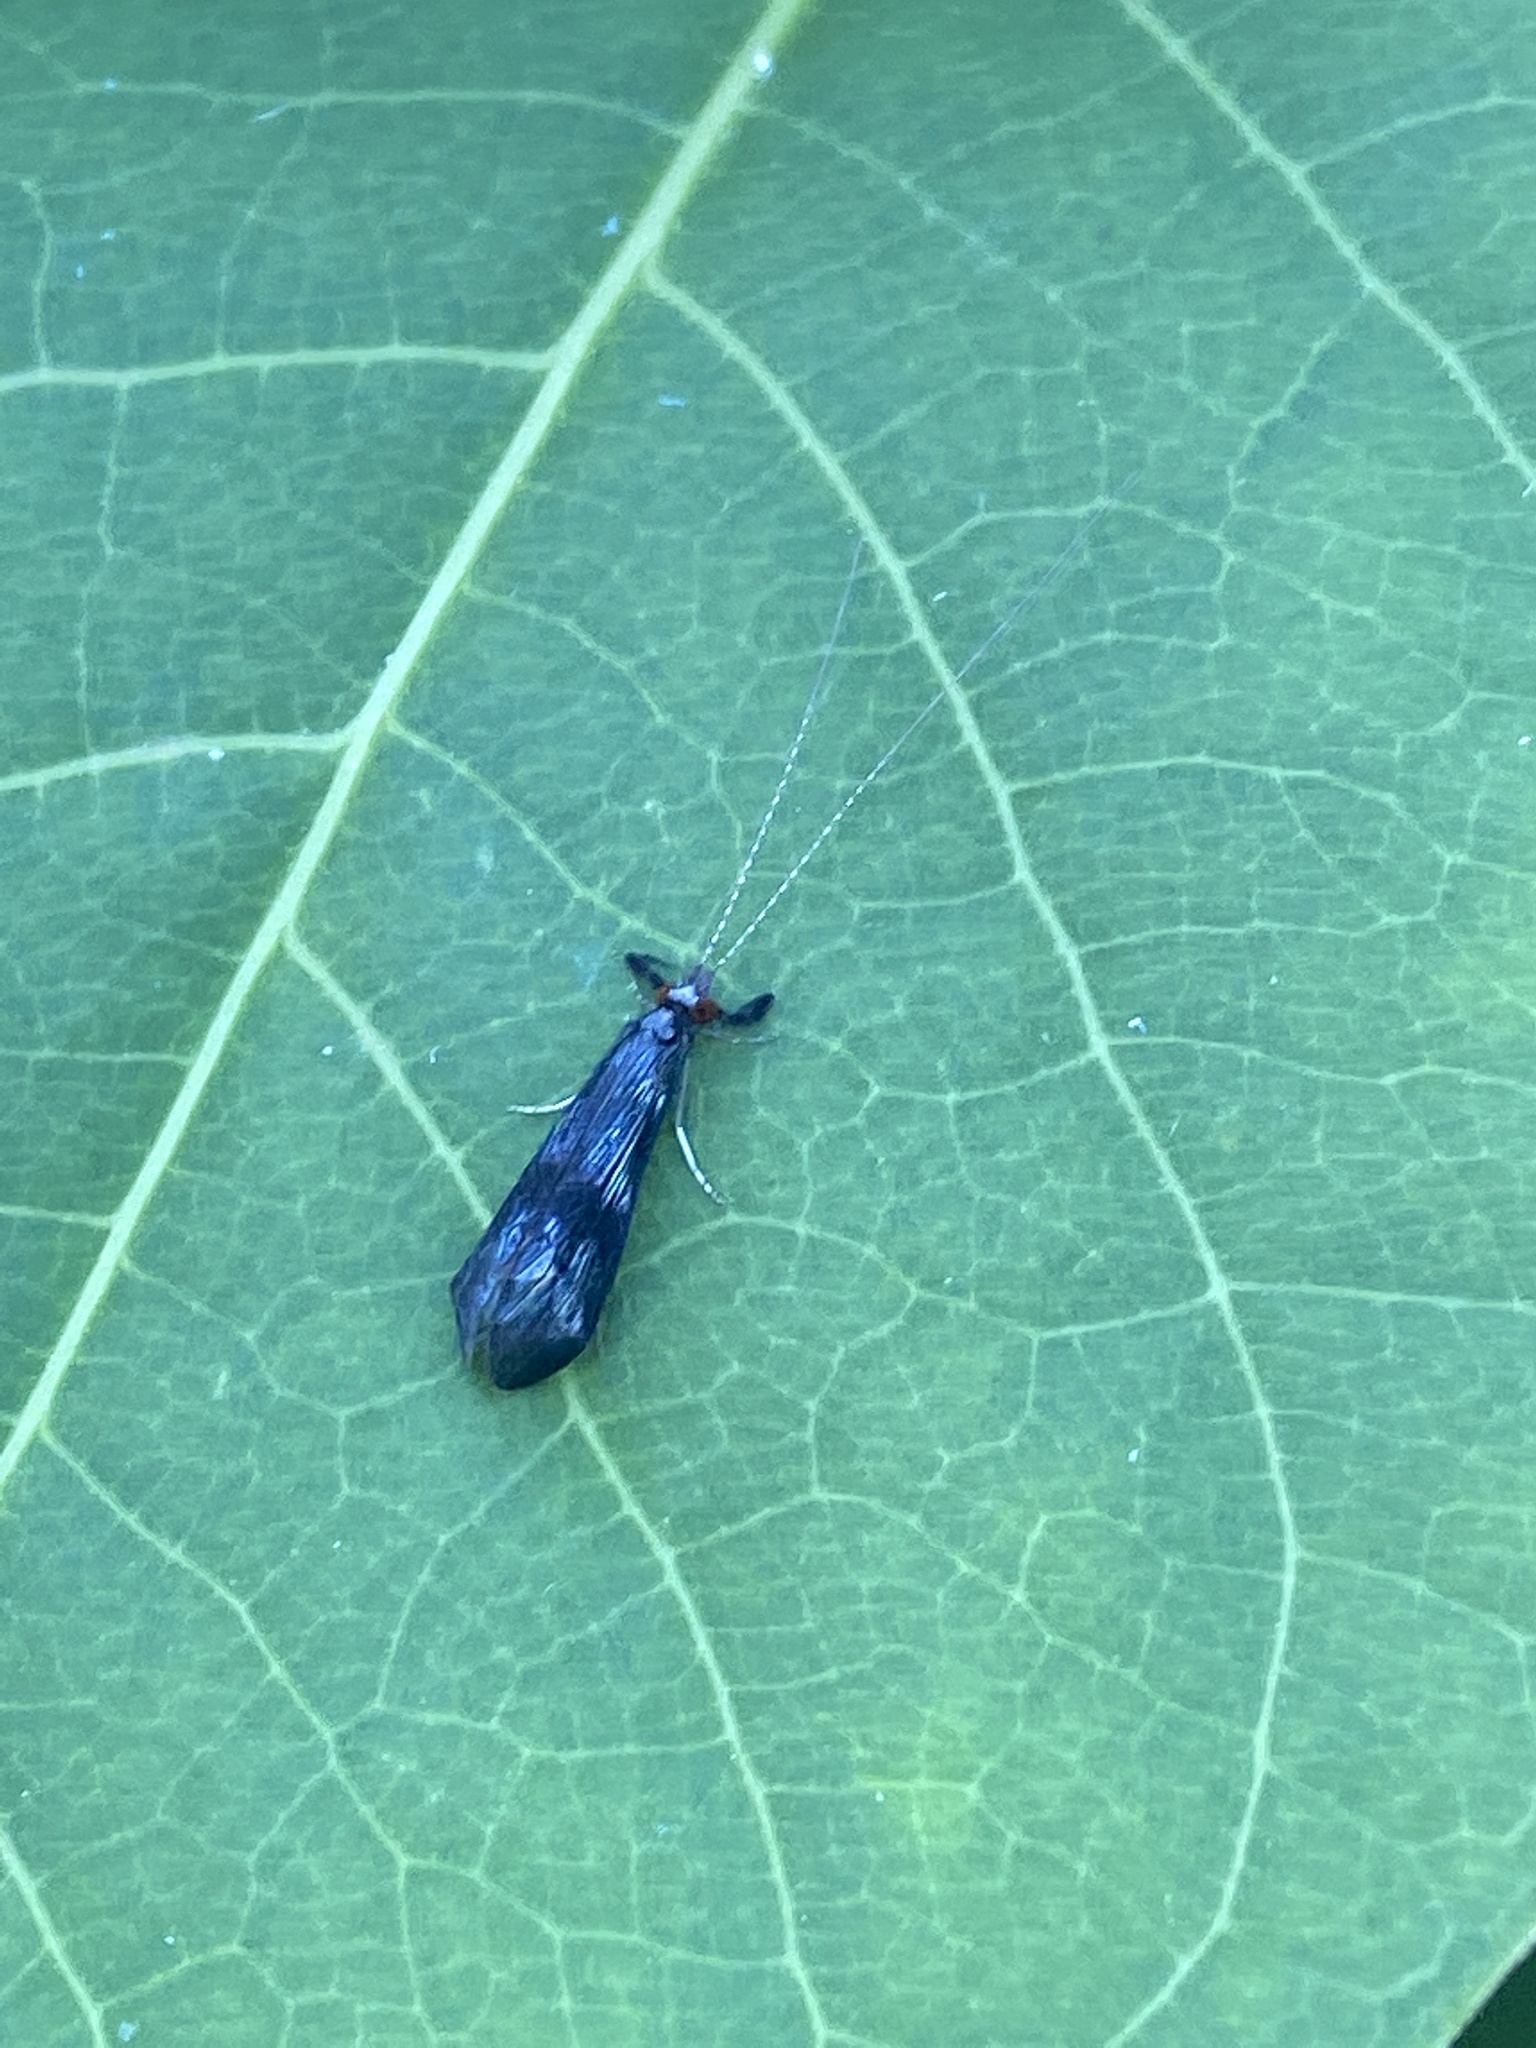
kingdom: Animalia
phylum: Arthropoda
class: Insecta
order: Trichoptera
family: Leptoceridae
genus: Mystacides
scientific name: Mystacides azureus
